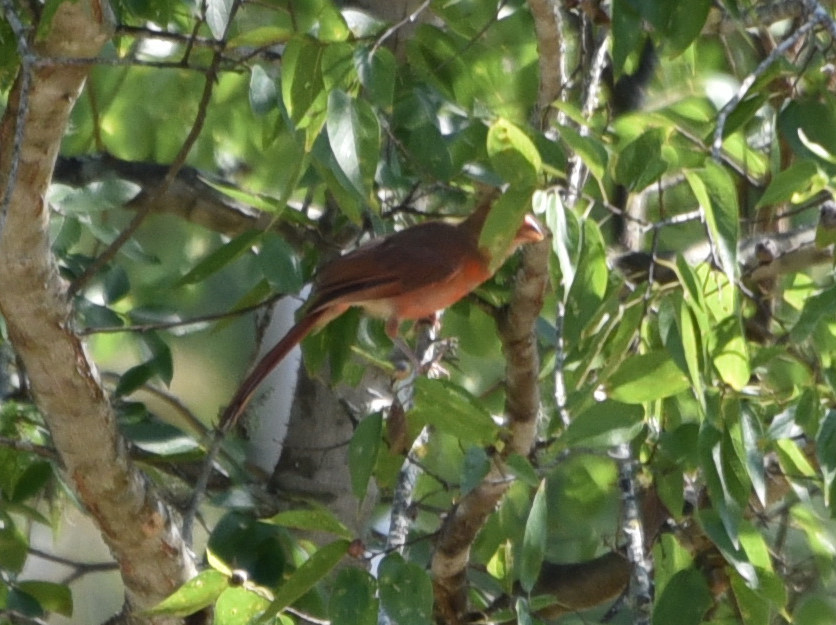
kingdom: Animalia
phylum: Chordata
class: Aves
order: Passeriformes
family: Cardinalidae
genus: Cardinalis
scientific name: Cardinalis cardinalis
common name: Northern cardinal
